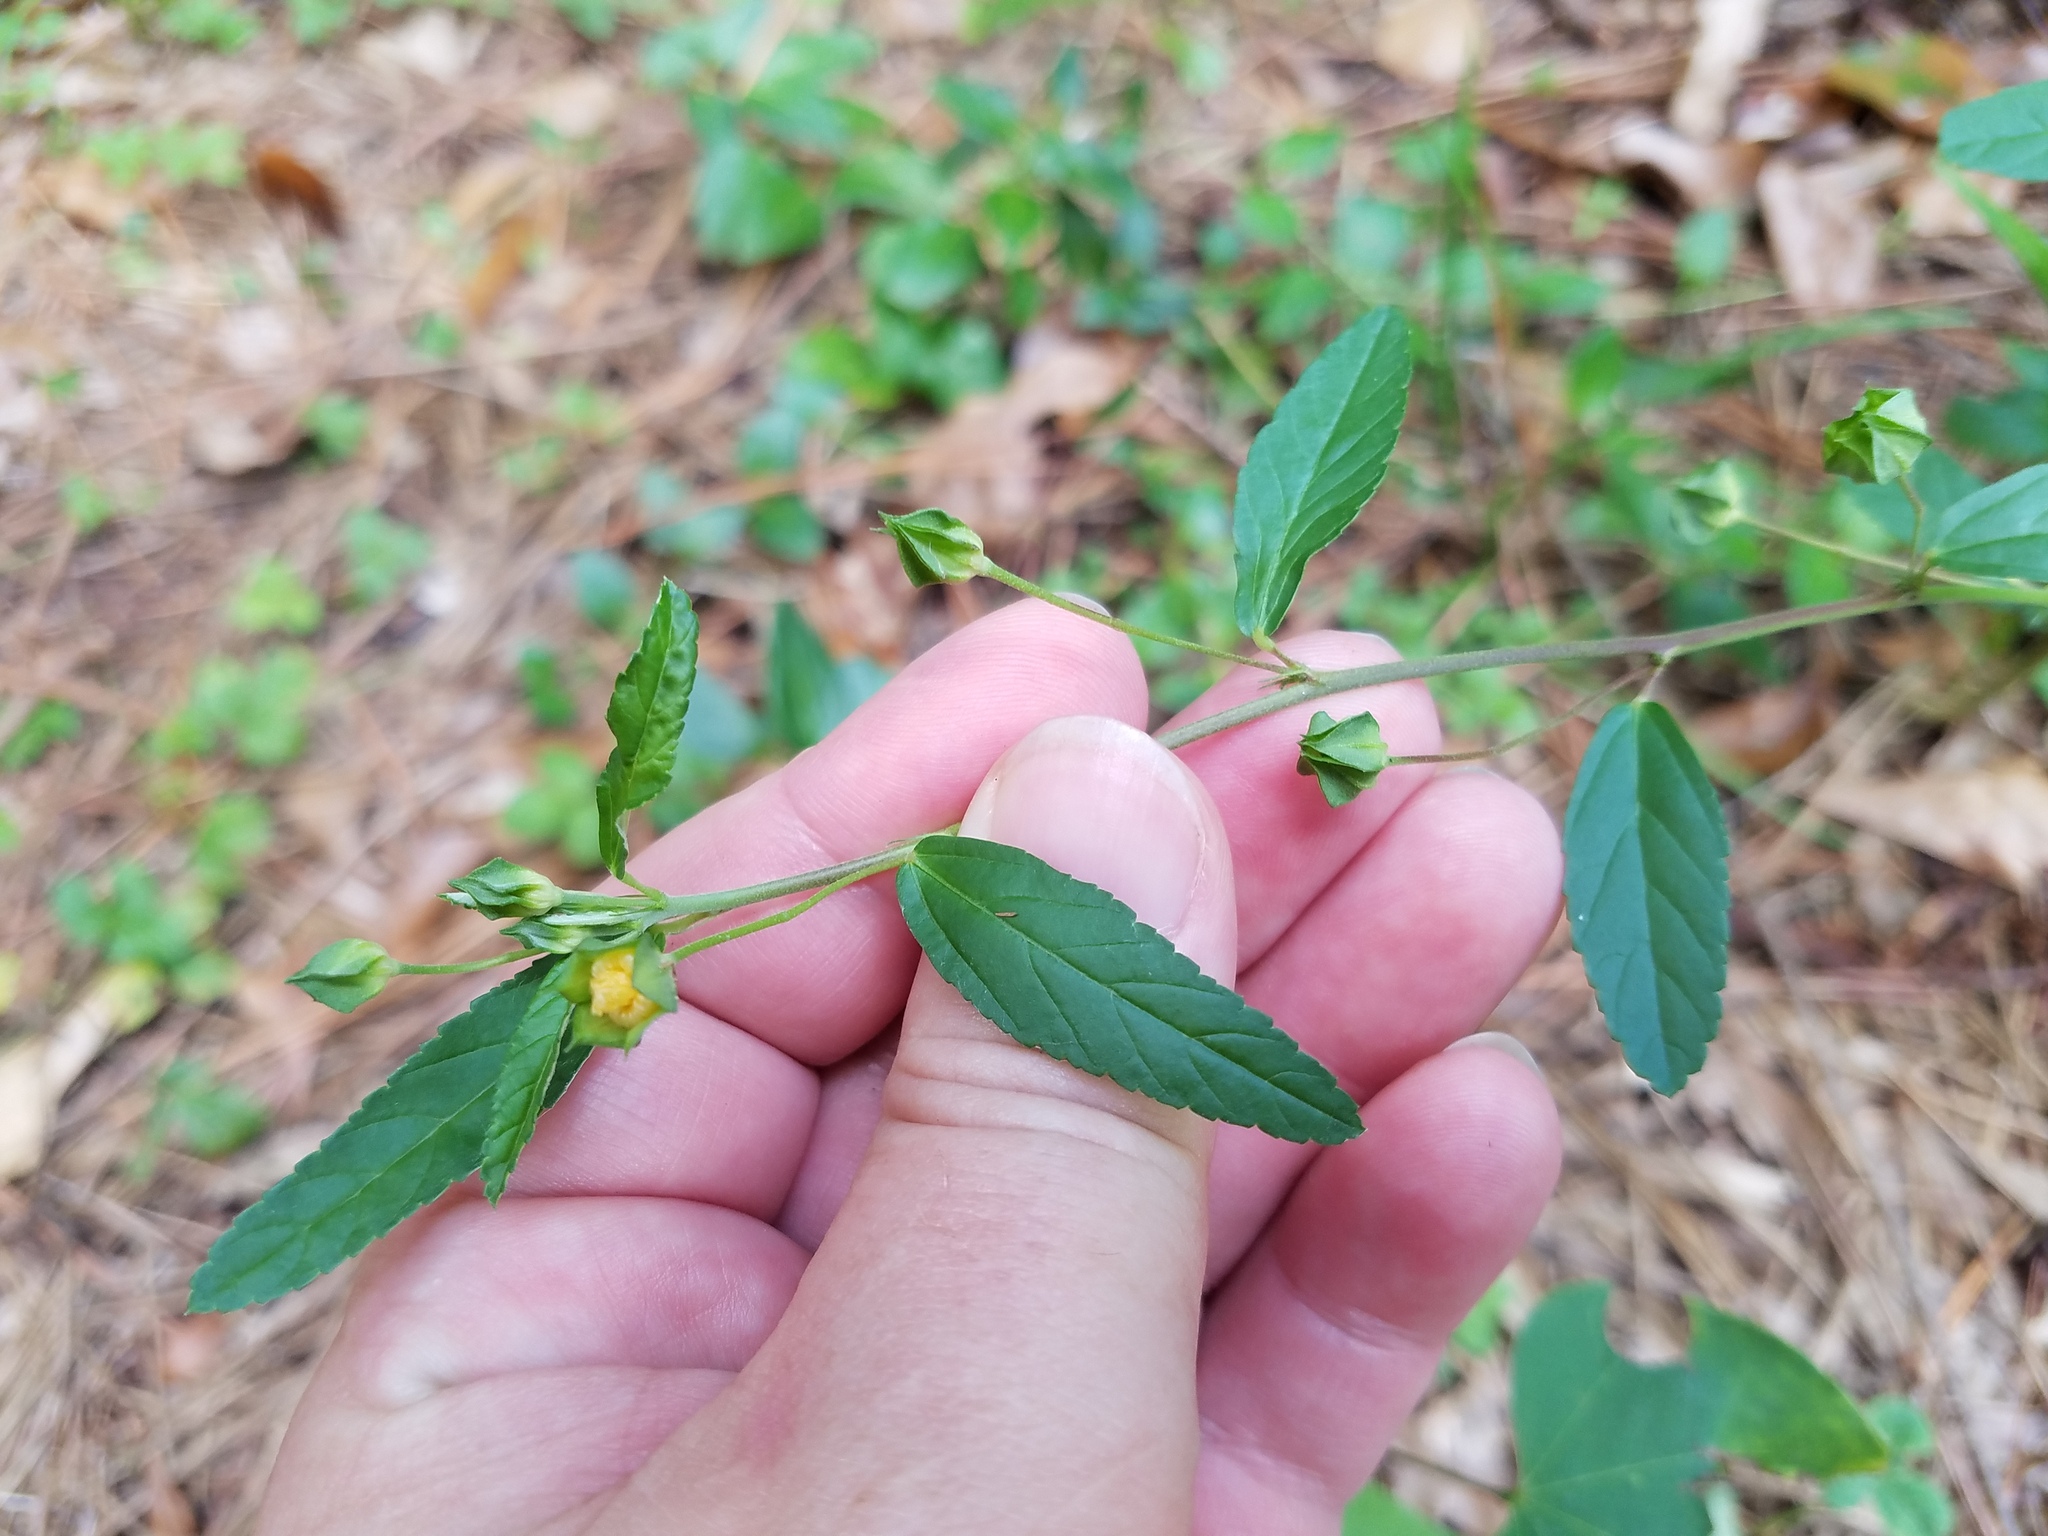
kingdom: Plantae
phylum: Tracheophyta
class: Magnoliopsida
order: Malvales
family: Malvaceae
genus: Sida
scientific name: Sida rhombifolia
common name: Queensland-hemp
